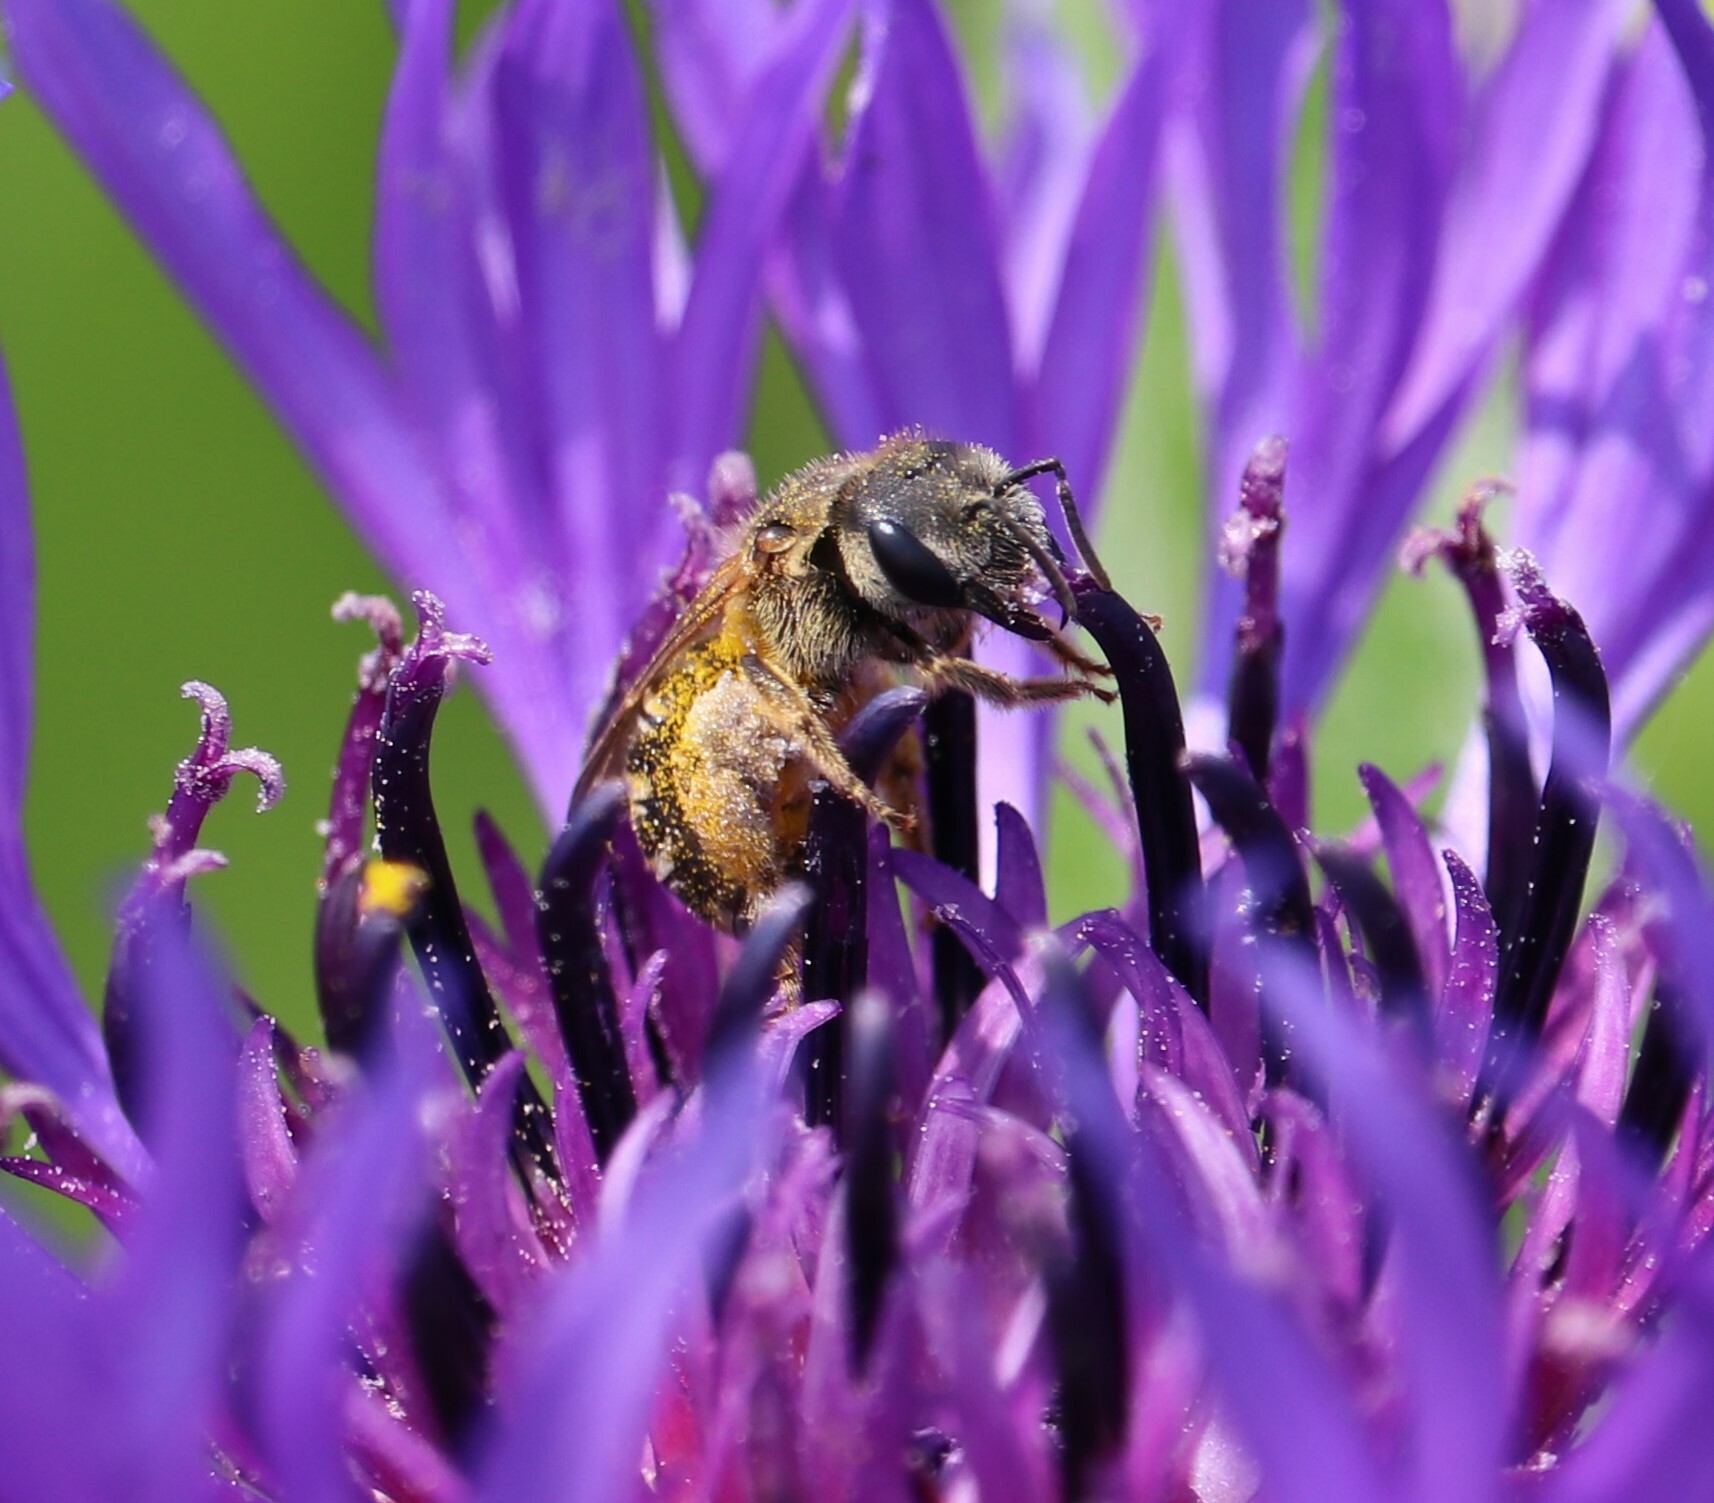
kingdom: Animalia
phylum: Arthropoda
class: Insecta
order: Hymenoptera
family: Halictidae
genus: Halictus
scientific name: Halictus ligatus
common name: Ligated furrow bee
